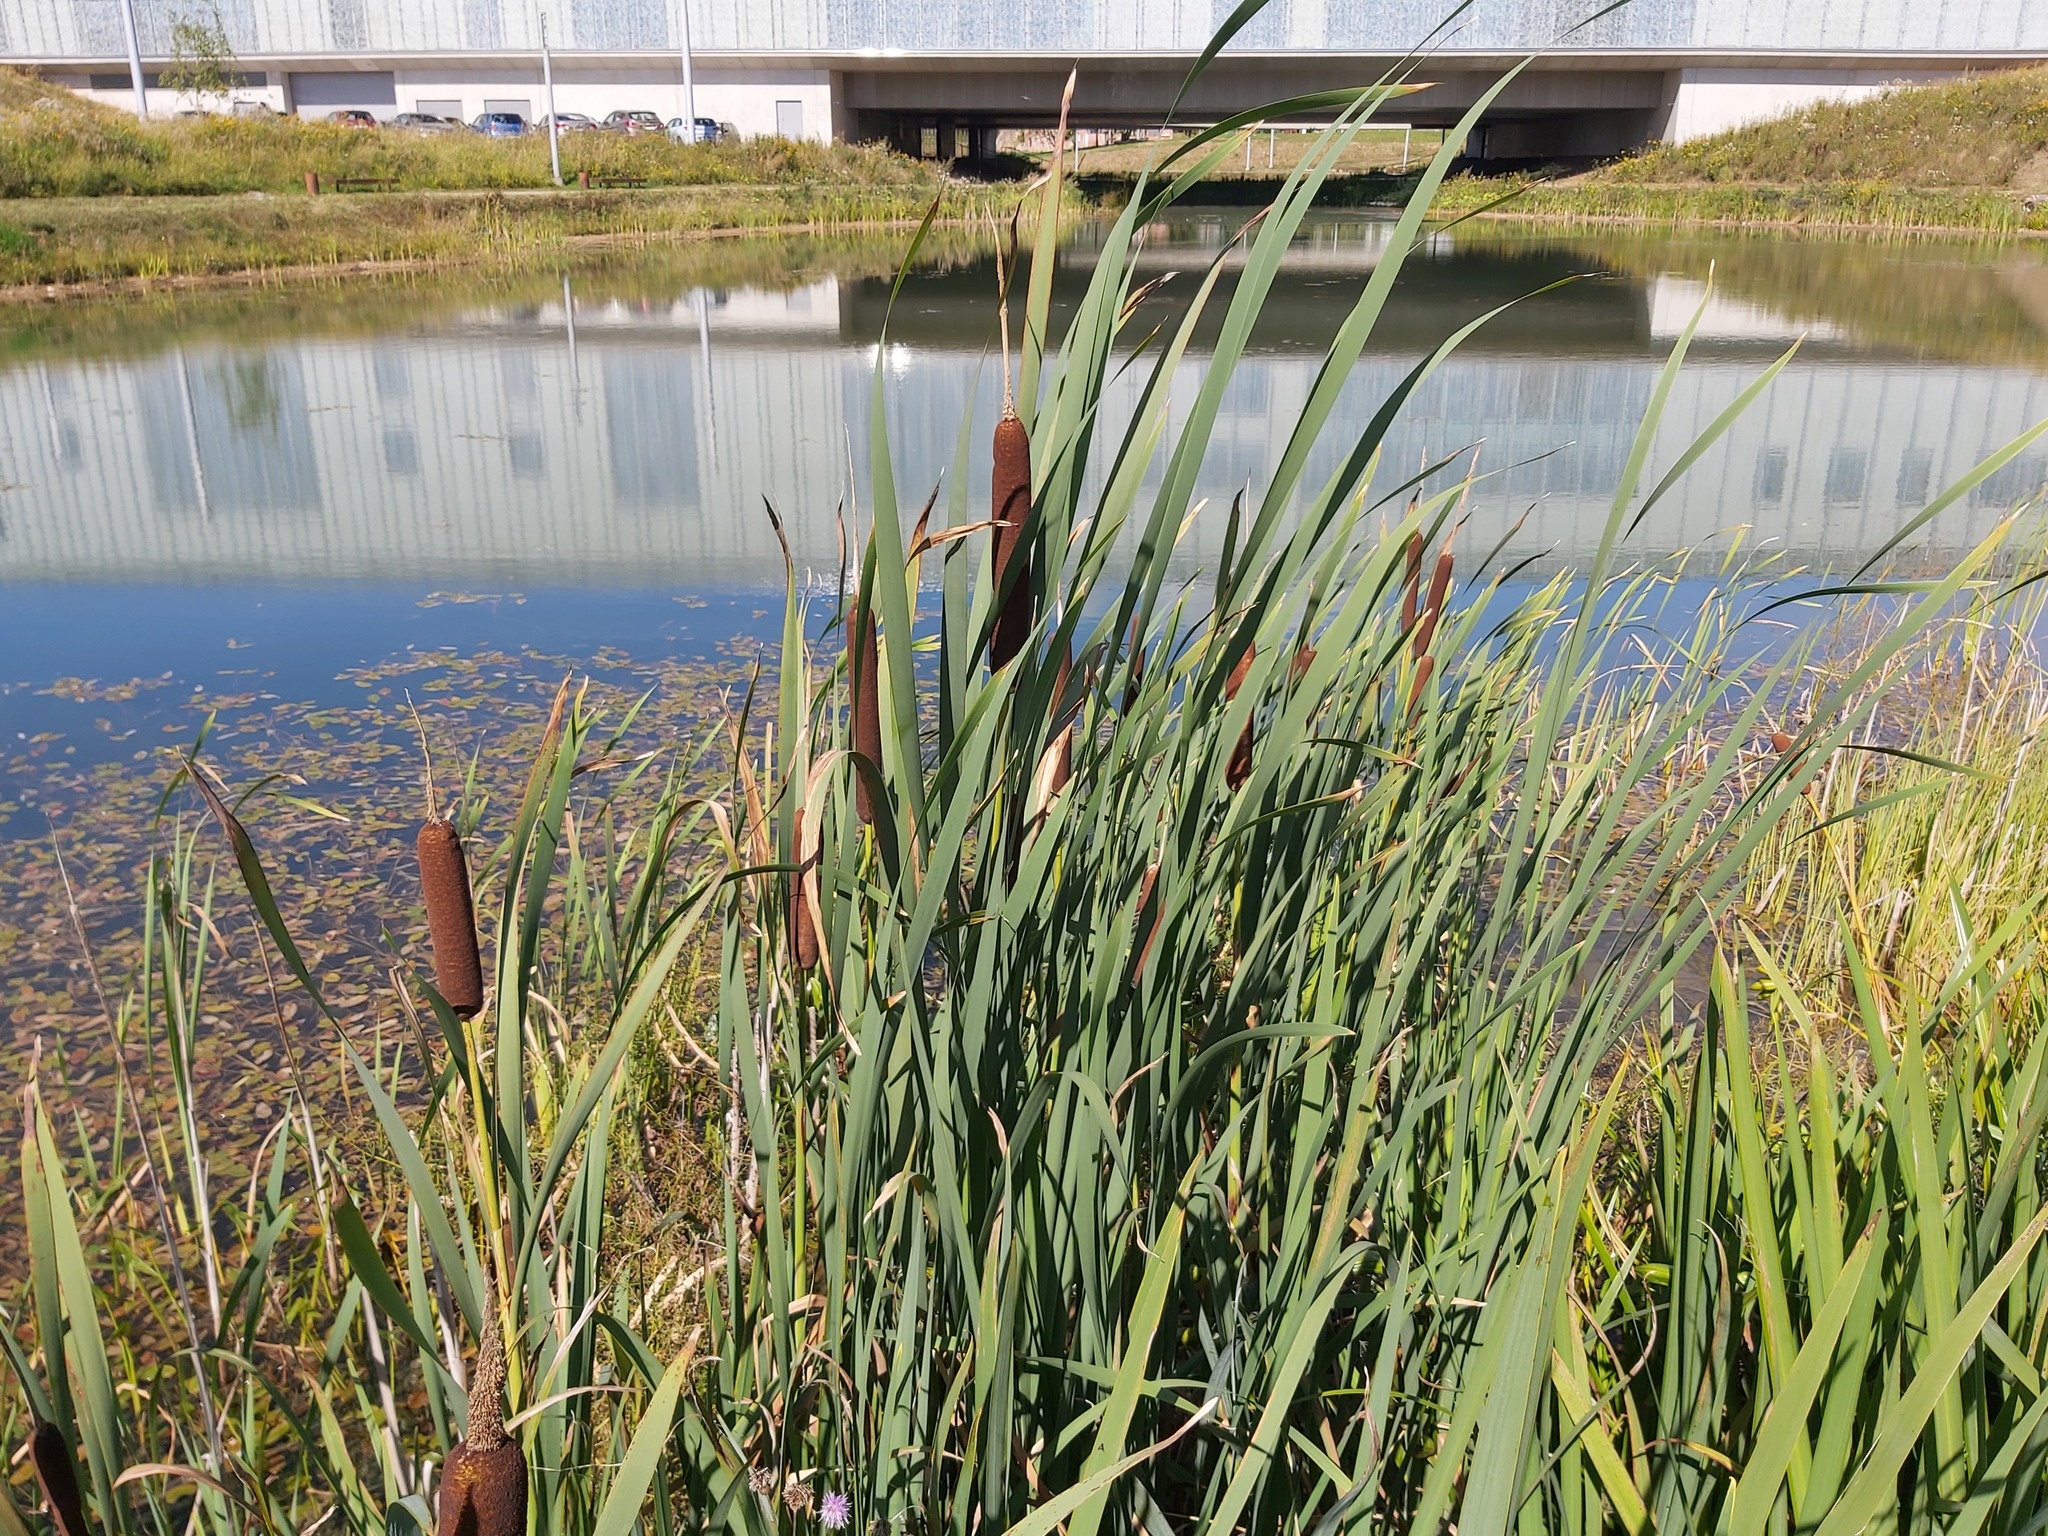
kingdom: Plantae
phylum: Tracheophyta
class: Liliopsida
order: Poales
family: Typhaceae
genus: Typha
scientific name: Typha latifolia
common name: Broadleaf cattail
